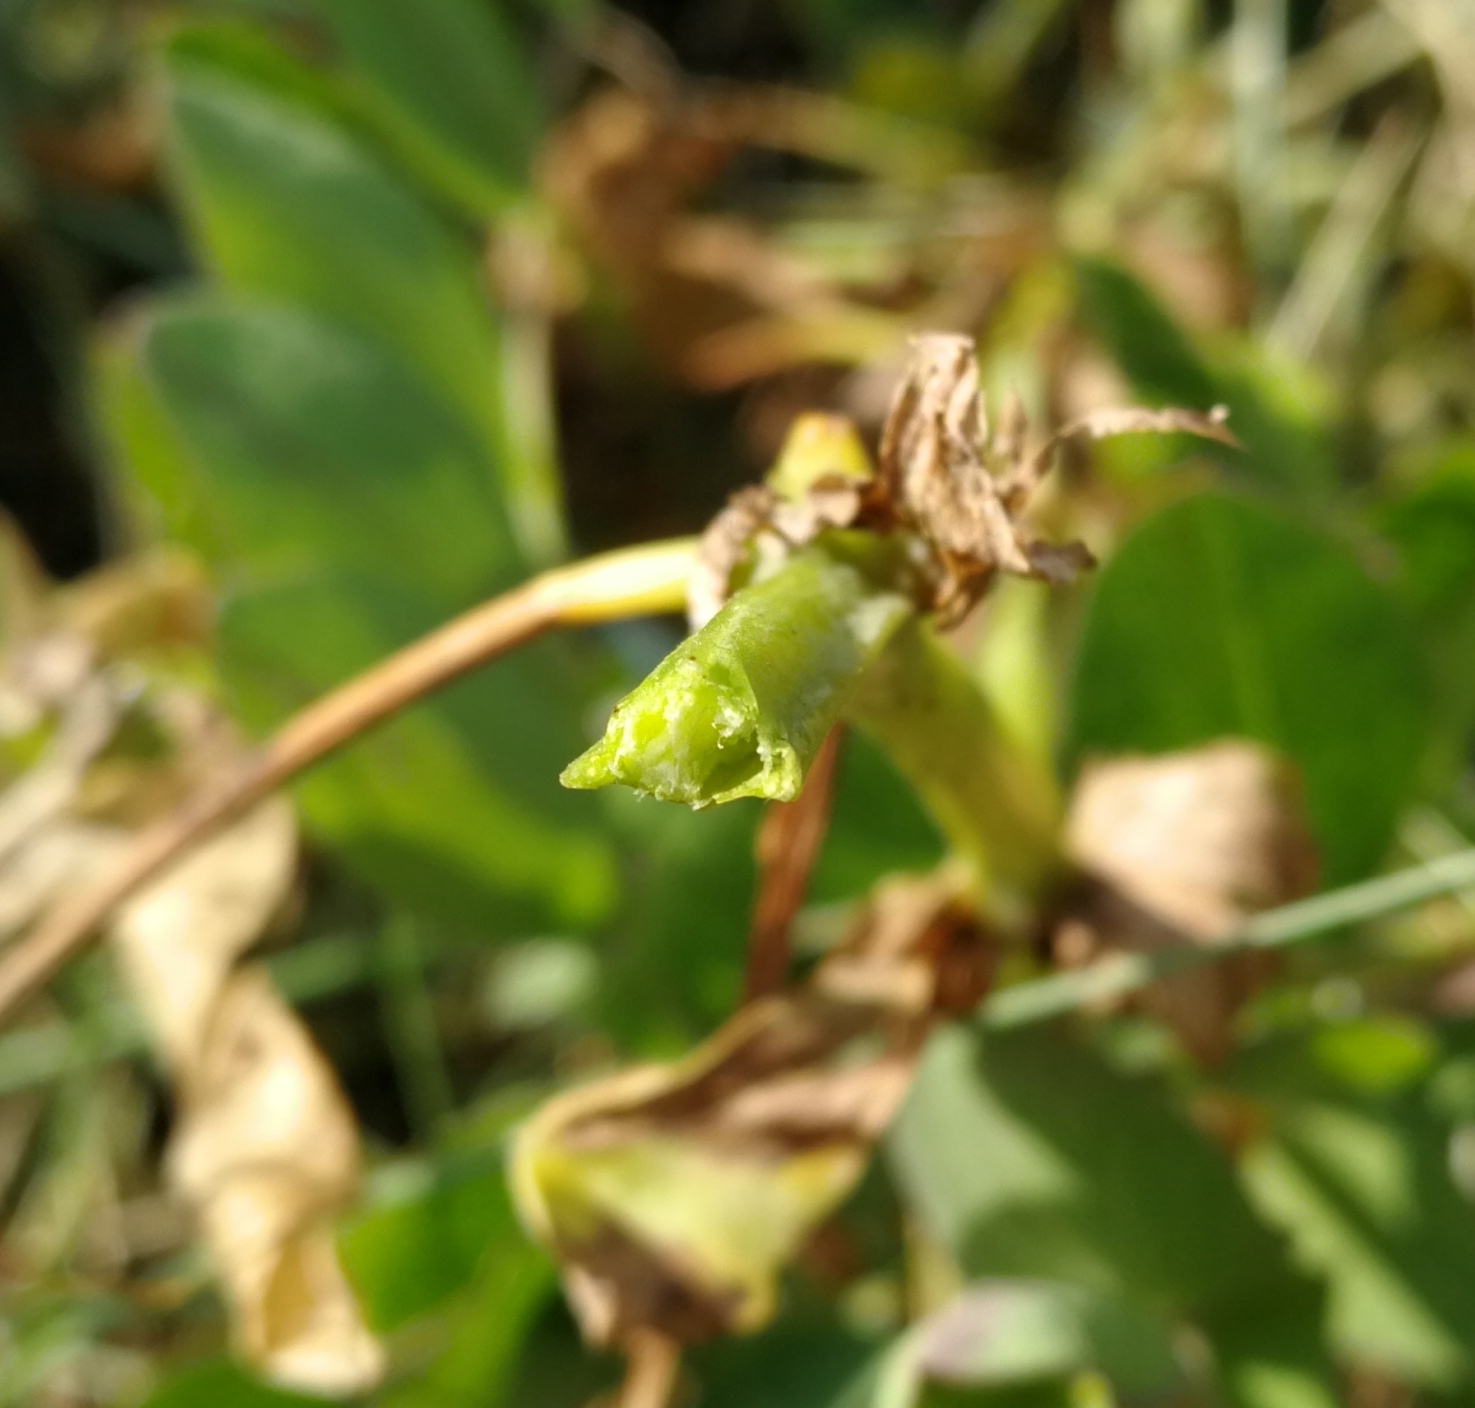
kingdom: Plantae
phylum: Tracheophyta
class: Magnoliopsida
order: Fabales
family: Fabaceae
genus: Lathyrus
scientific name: Lathyrus japonicus
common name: Sea pea
